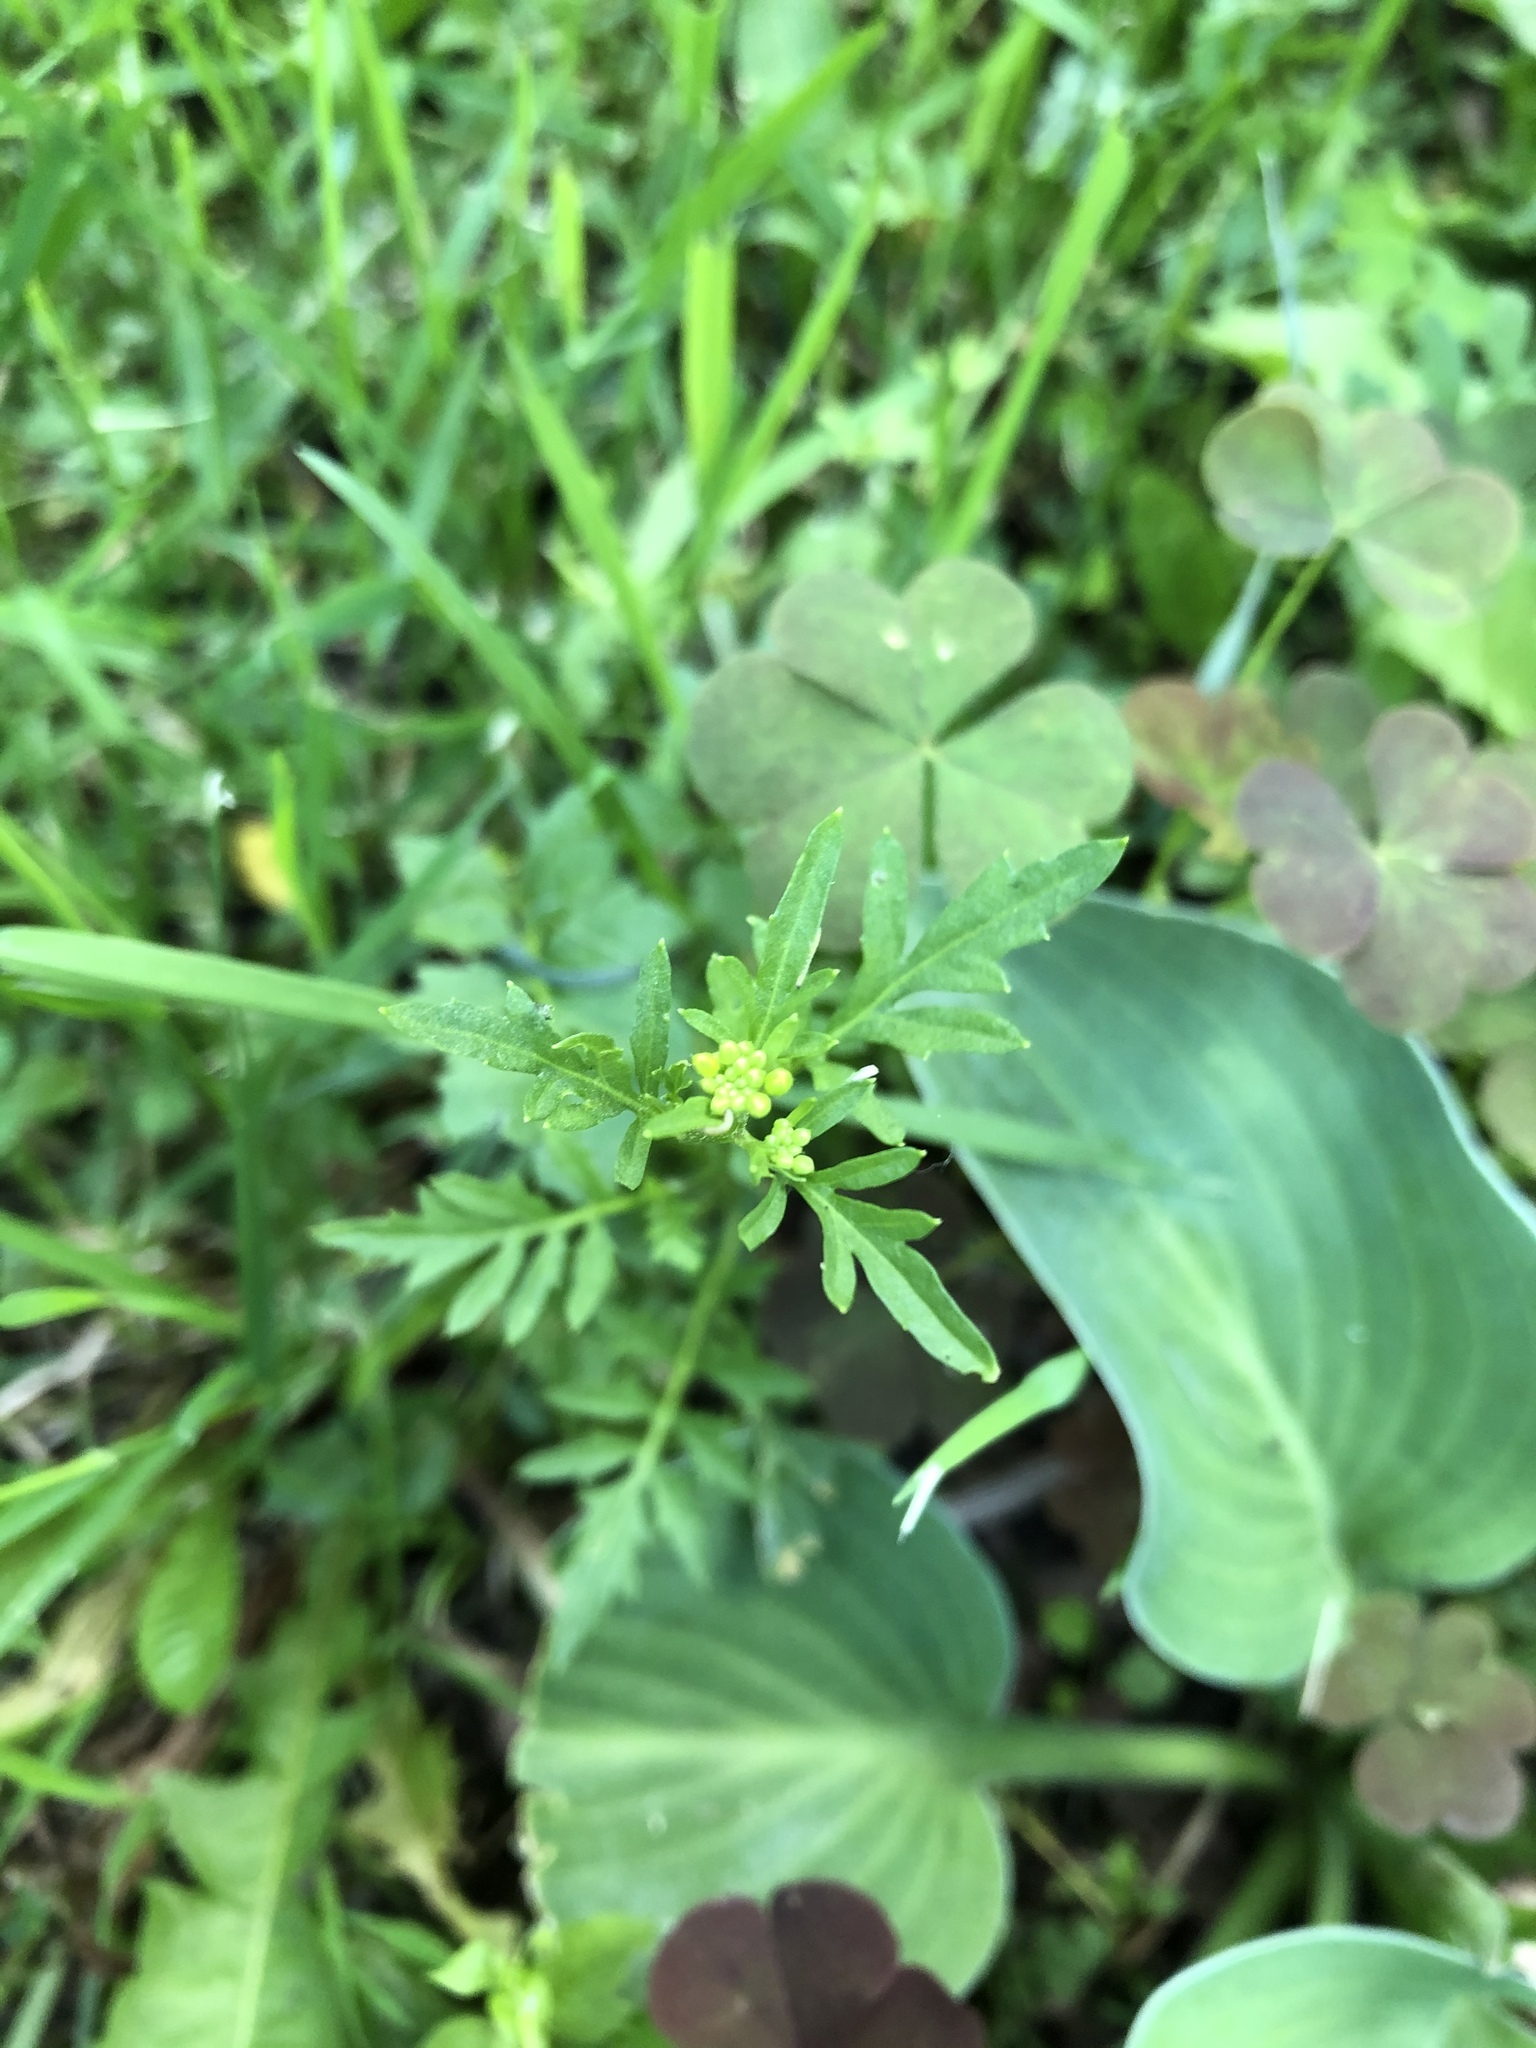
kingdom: Plantae
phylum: Tracheophyta
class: Magnoliopsida
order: Brassicales
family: Brassicaceae
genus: Rorippa
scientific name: Rorippa sylvestris
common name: Creeping yellowcress
